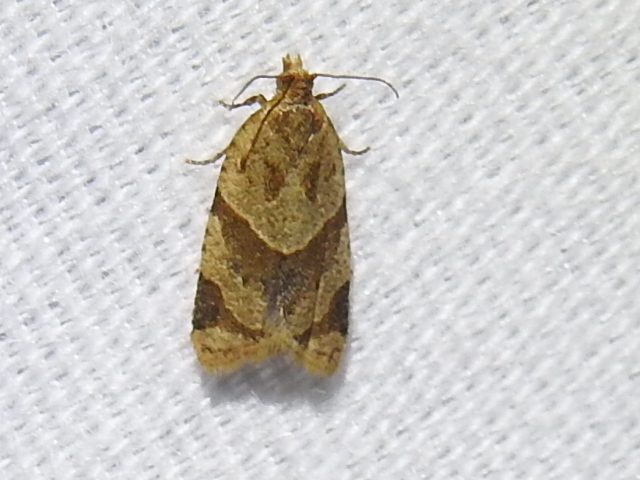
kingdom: Animalia
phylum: Arthropoda
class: Insecta
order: Lepidoptera
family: Tortricidae
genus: Clepsis
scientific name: Clepsis peritana
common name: Garden tortrix
